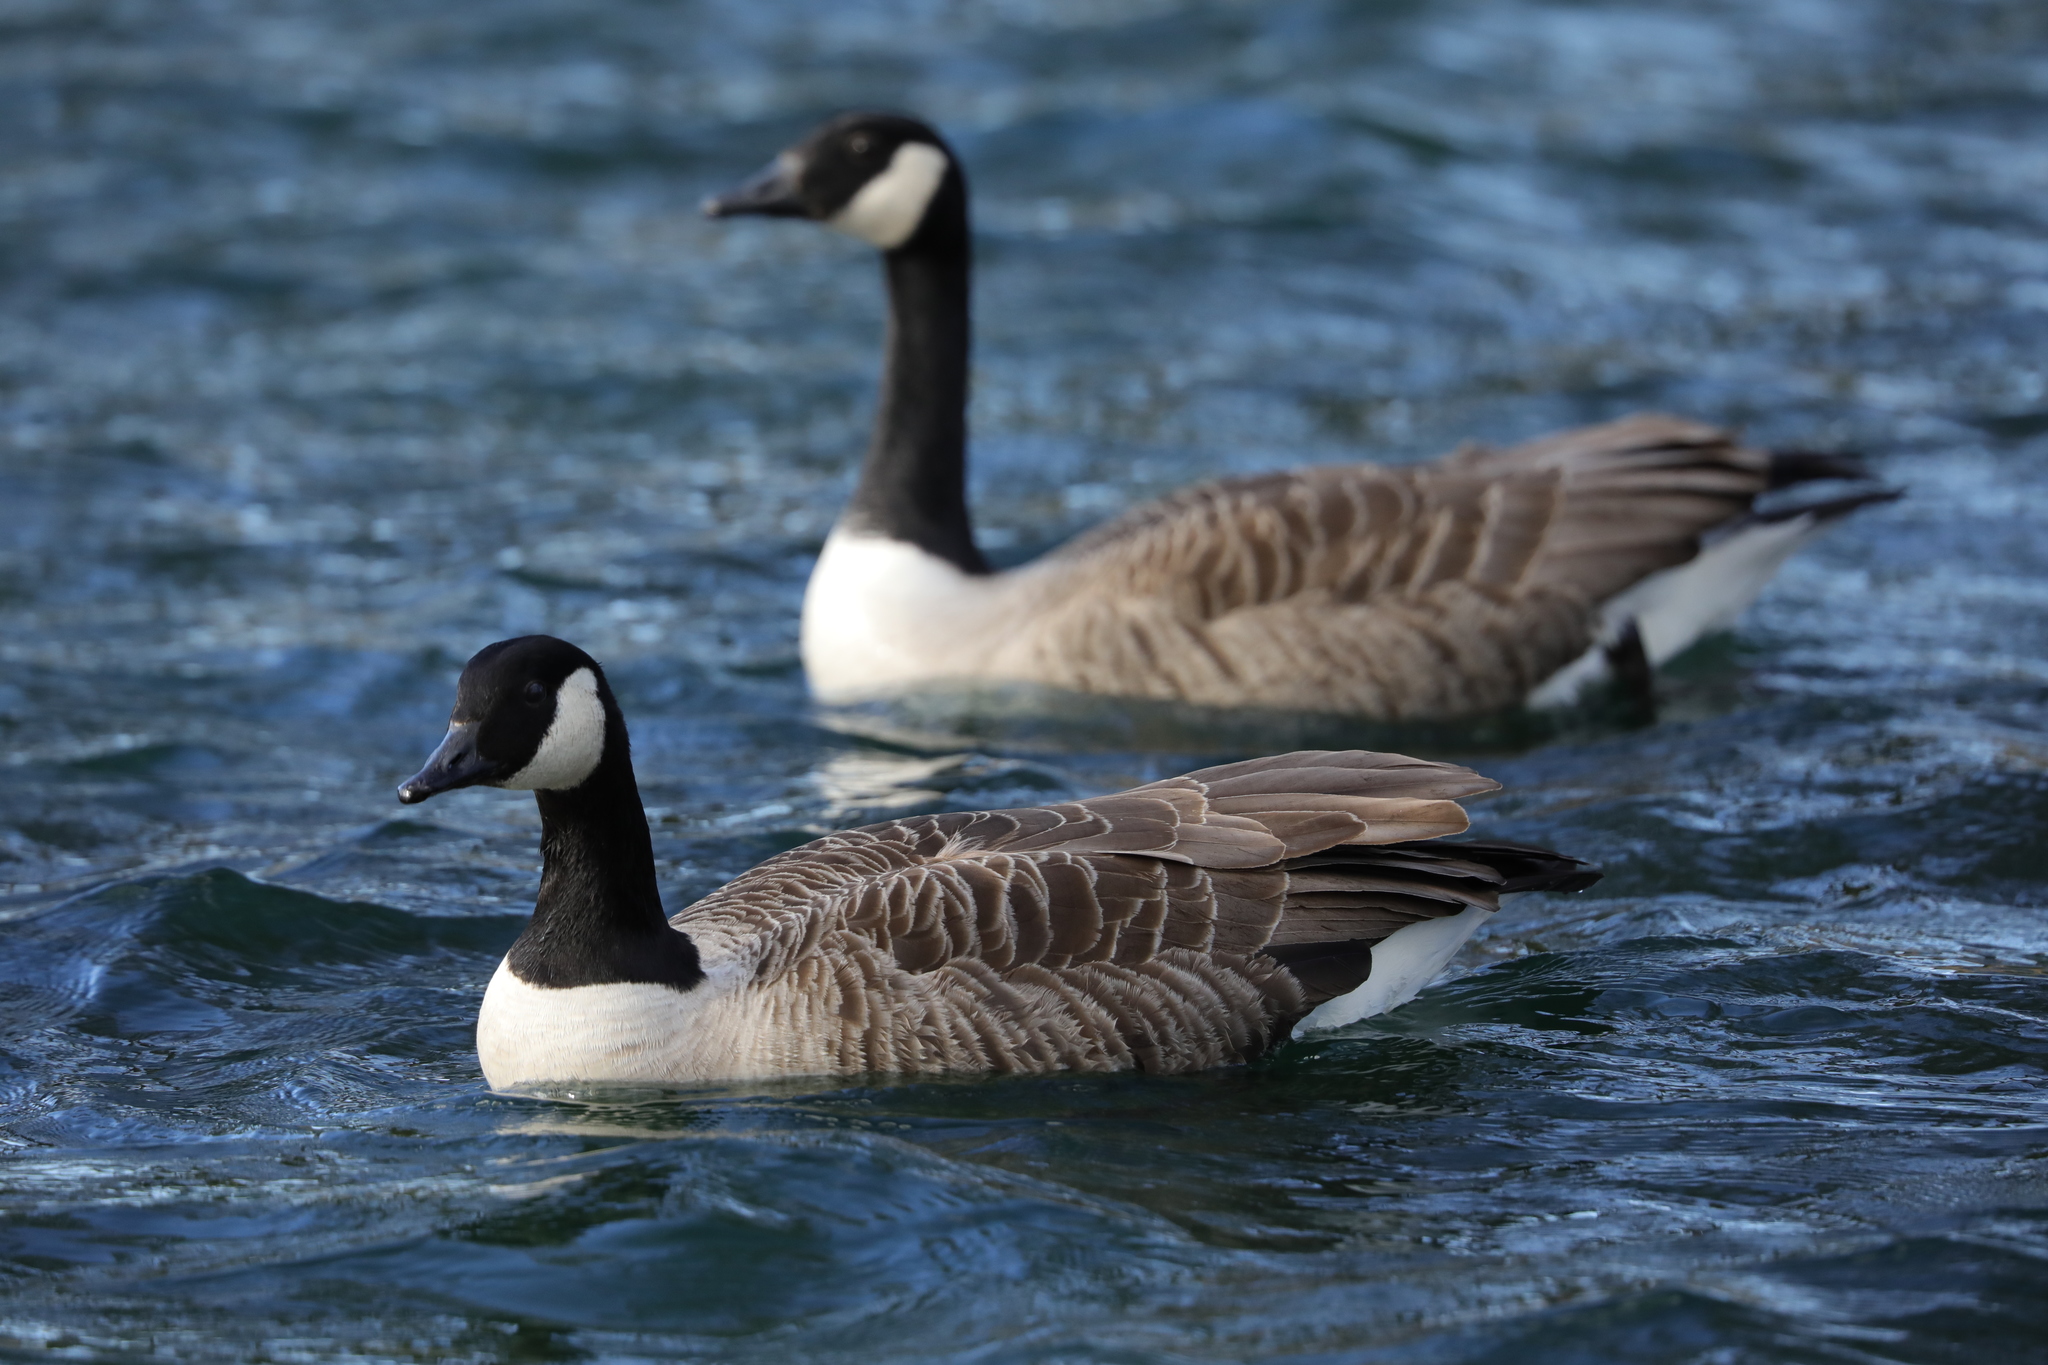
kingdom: Animalia
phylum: Chordata
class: Aves
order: Anseriformes
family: Anatidae
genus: Branta
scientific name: Branta canadensis
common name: Canada goose
